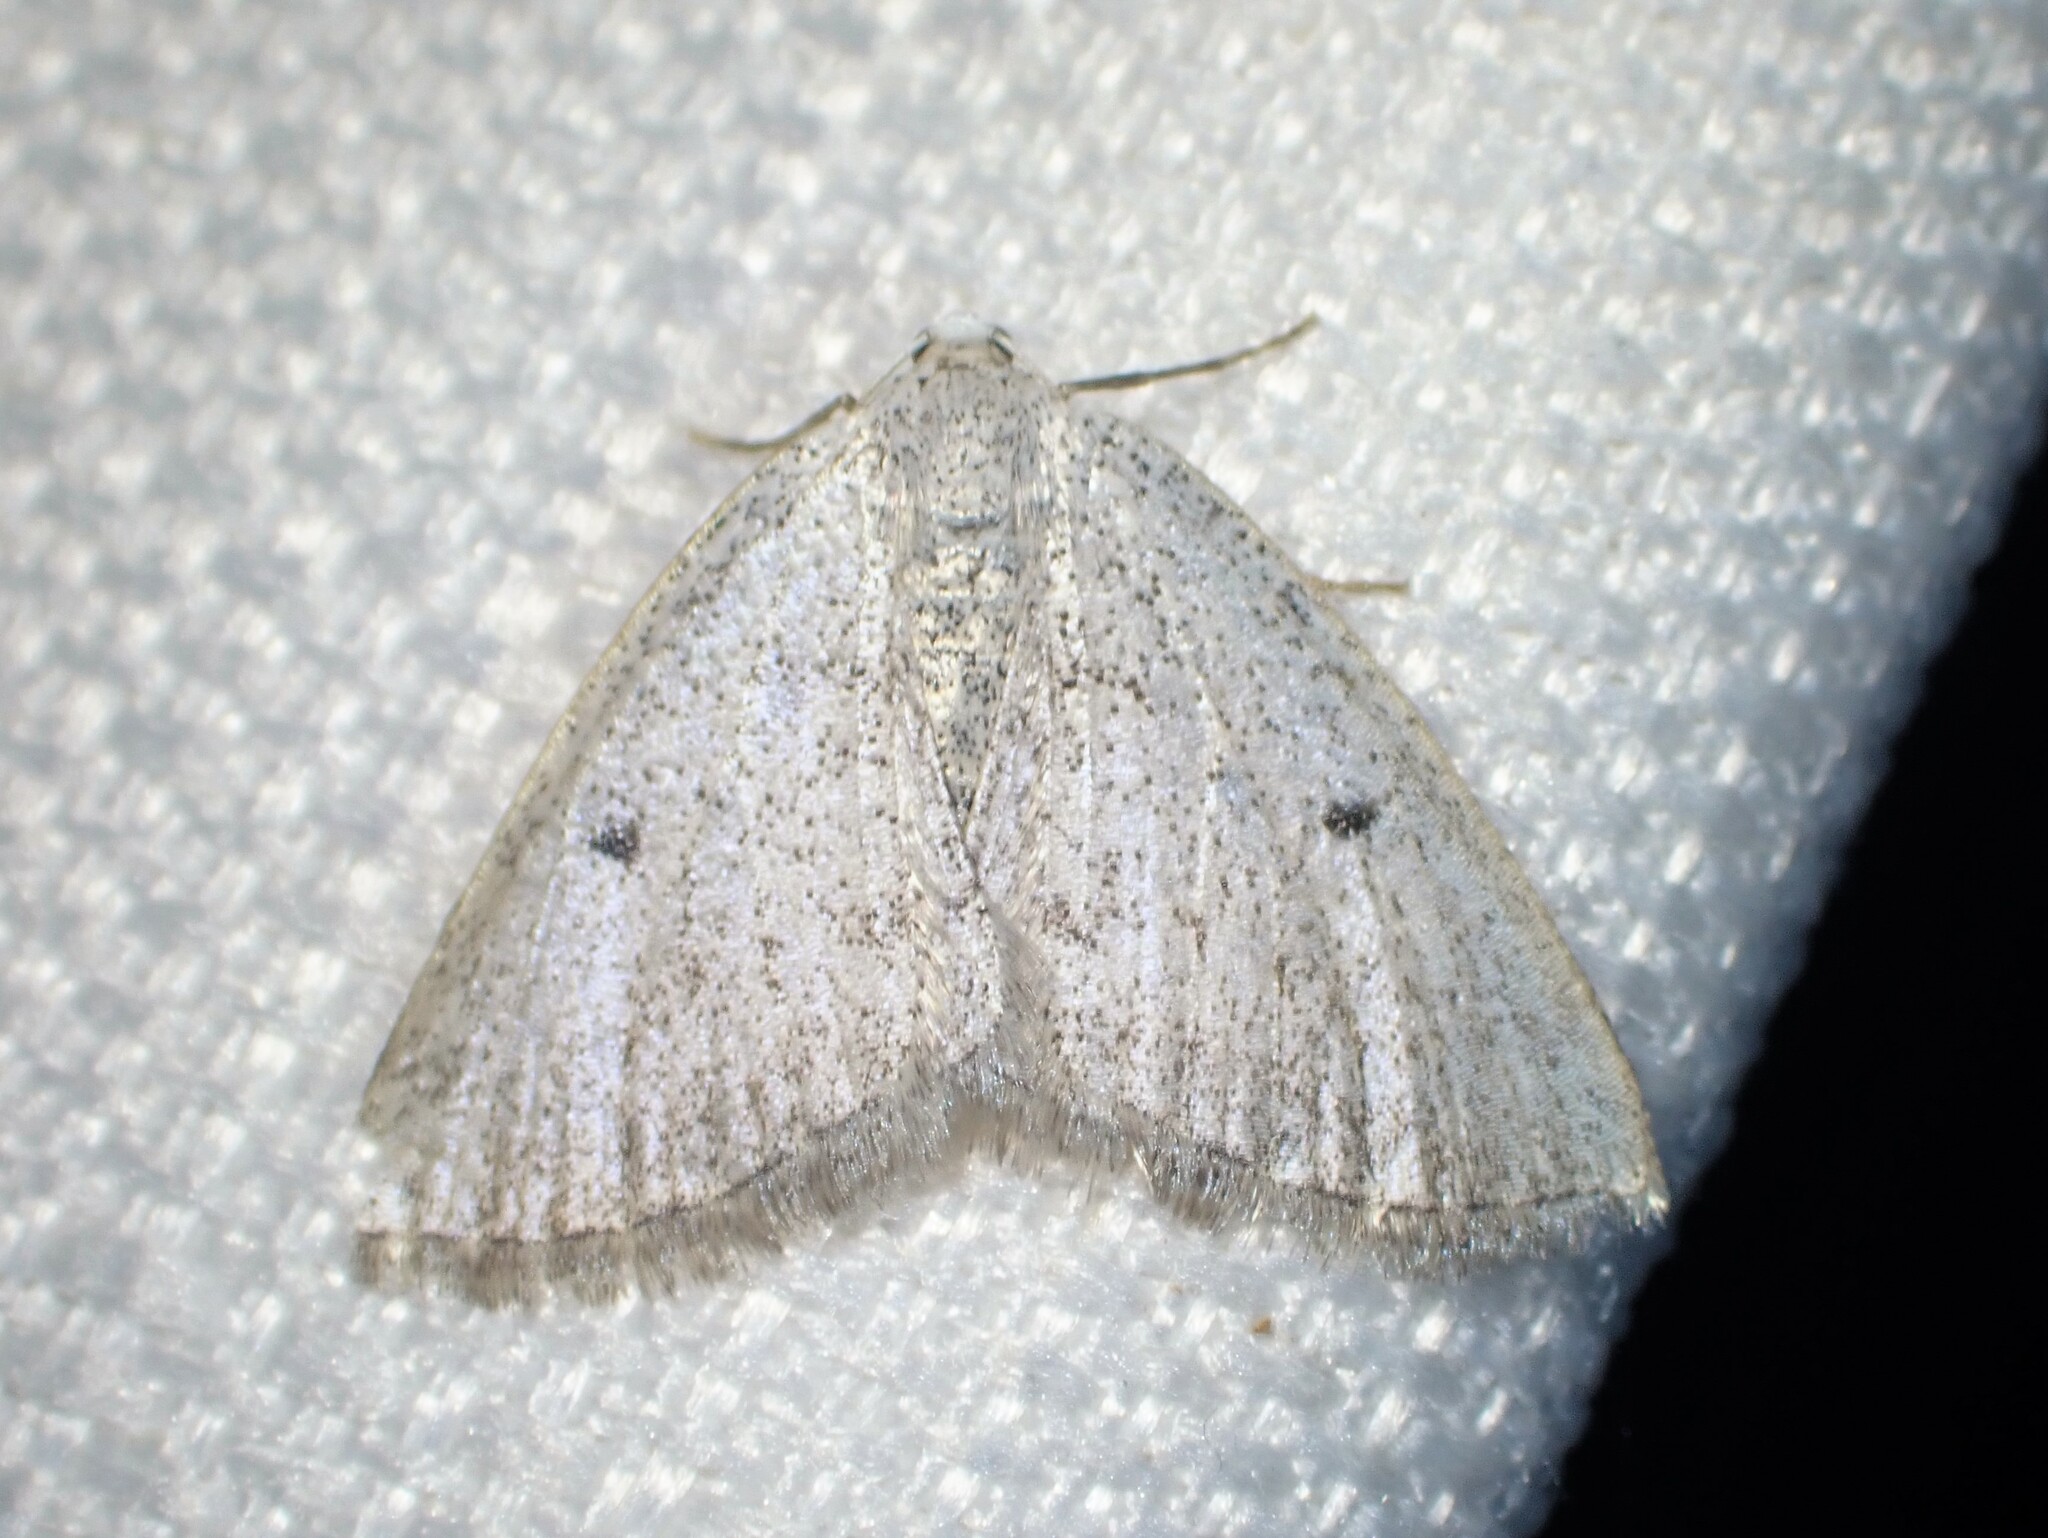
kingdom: Animalia
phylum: Arthropoda
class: Insecta
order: Lepidoptera
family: Geometridae
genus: Lomographa
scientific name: Lomographa glomeraria
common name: Gray spring moth
